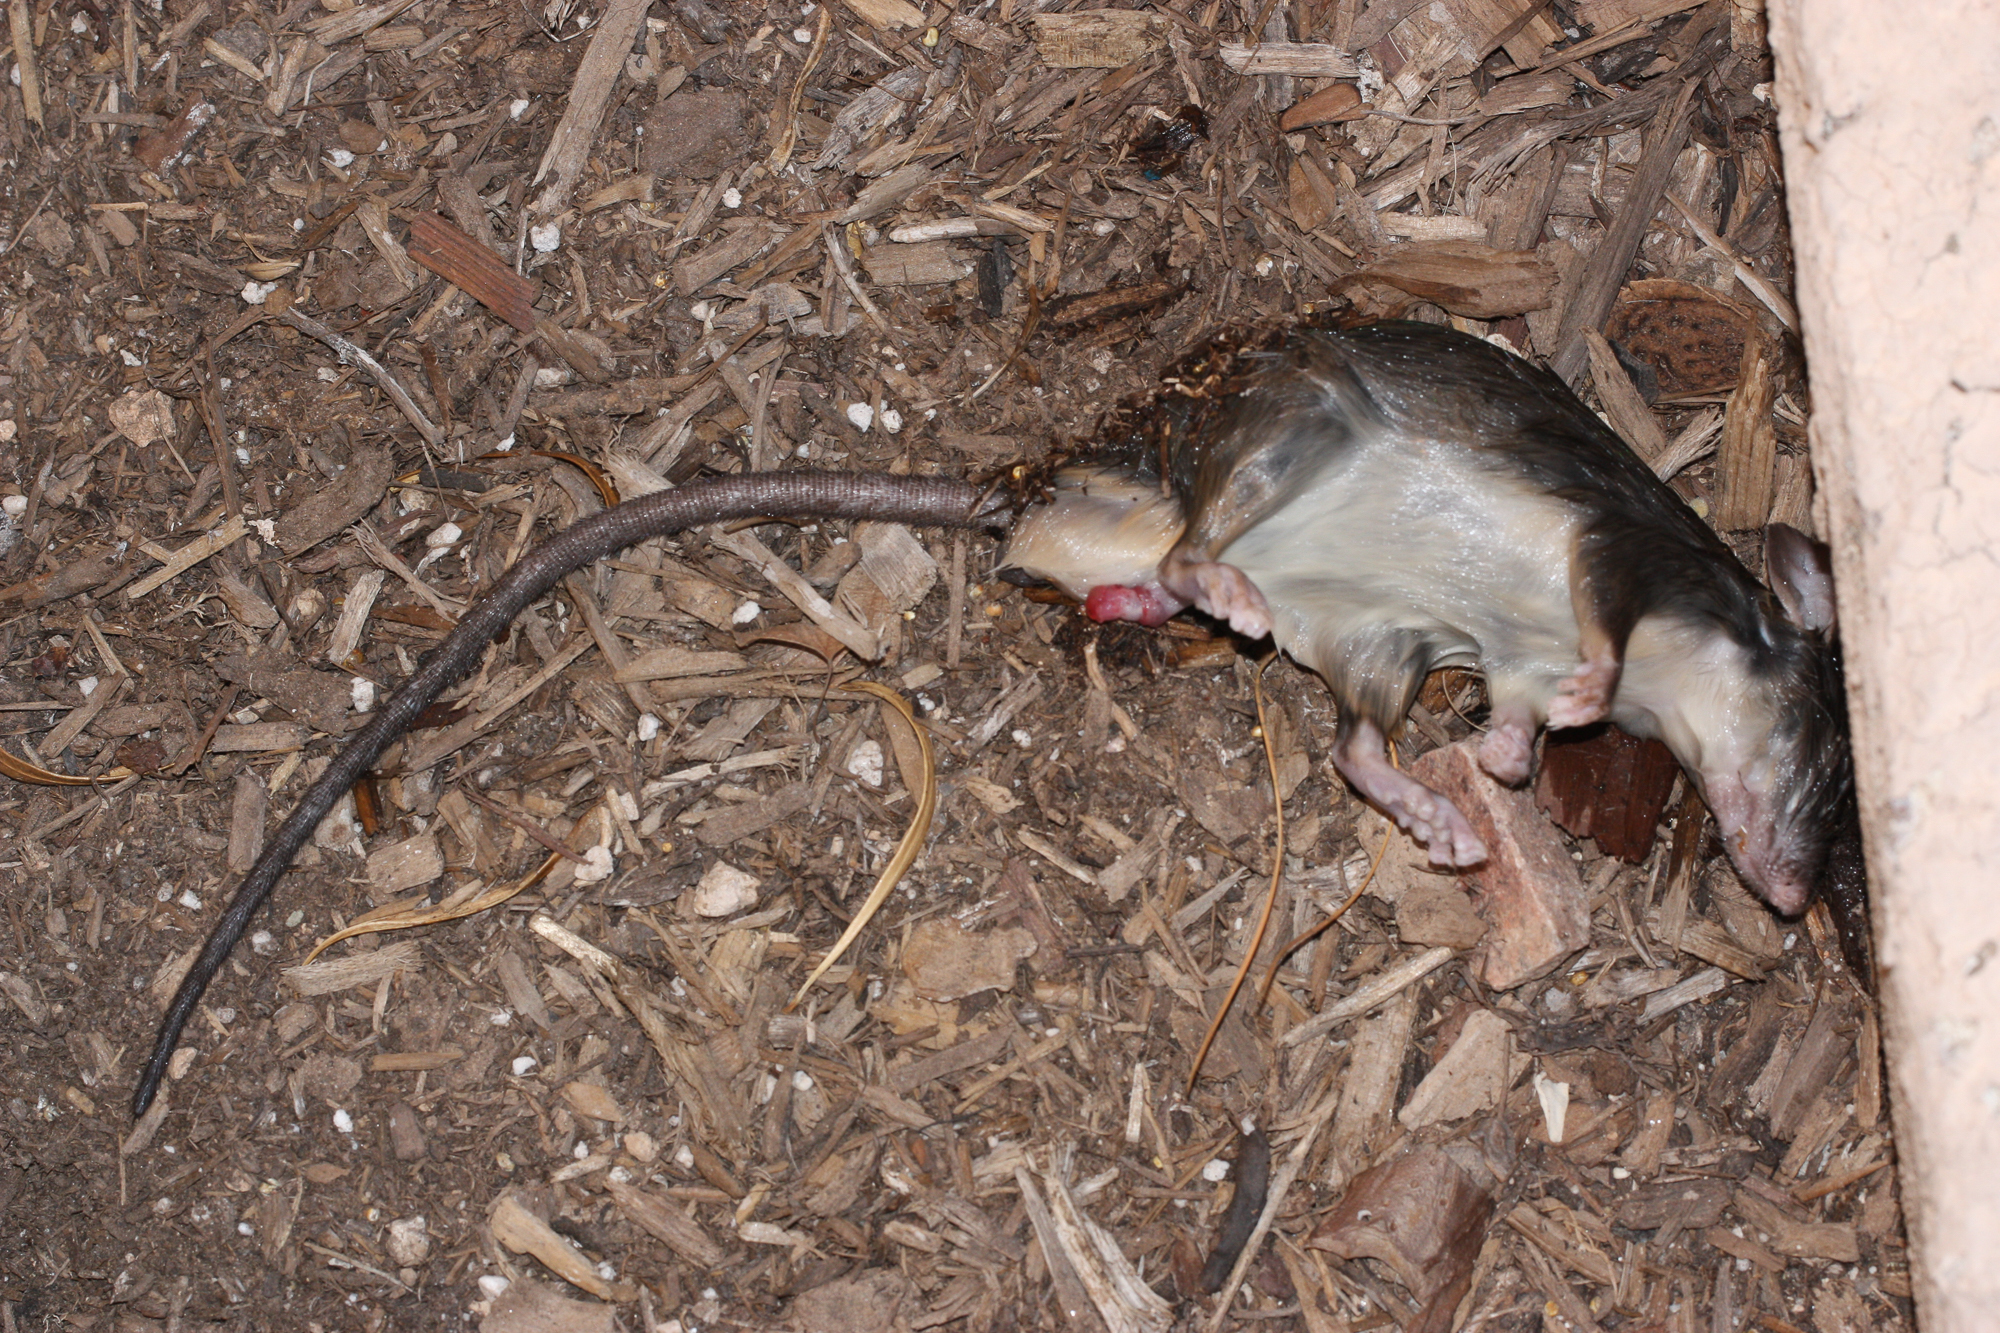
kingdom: Animalia
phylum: Chordata
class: Mammalia
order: Rodentia
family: Muridae
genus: Rattus
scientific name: Rattus rattus
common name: Black rat
